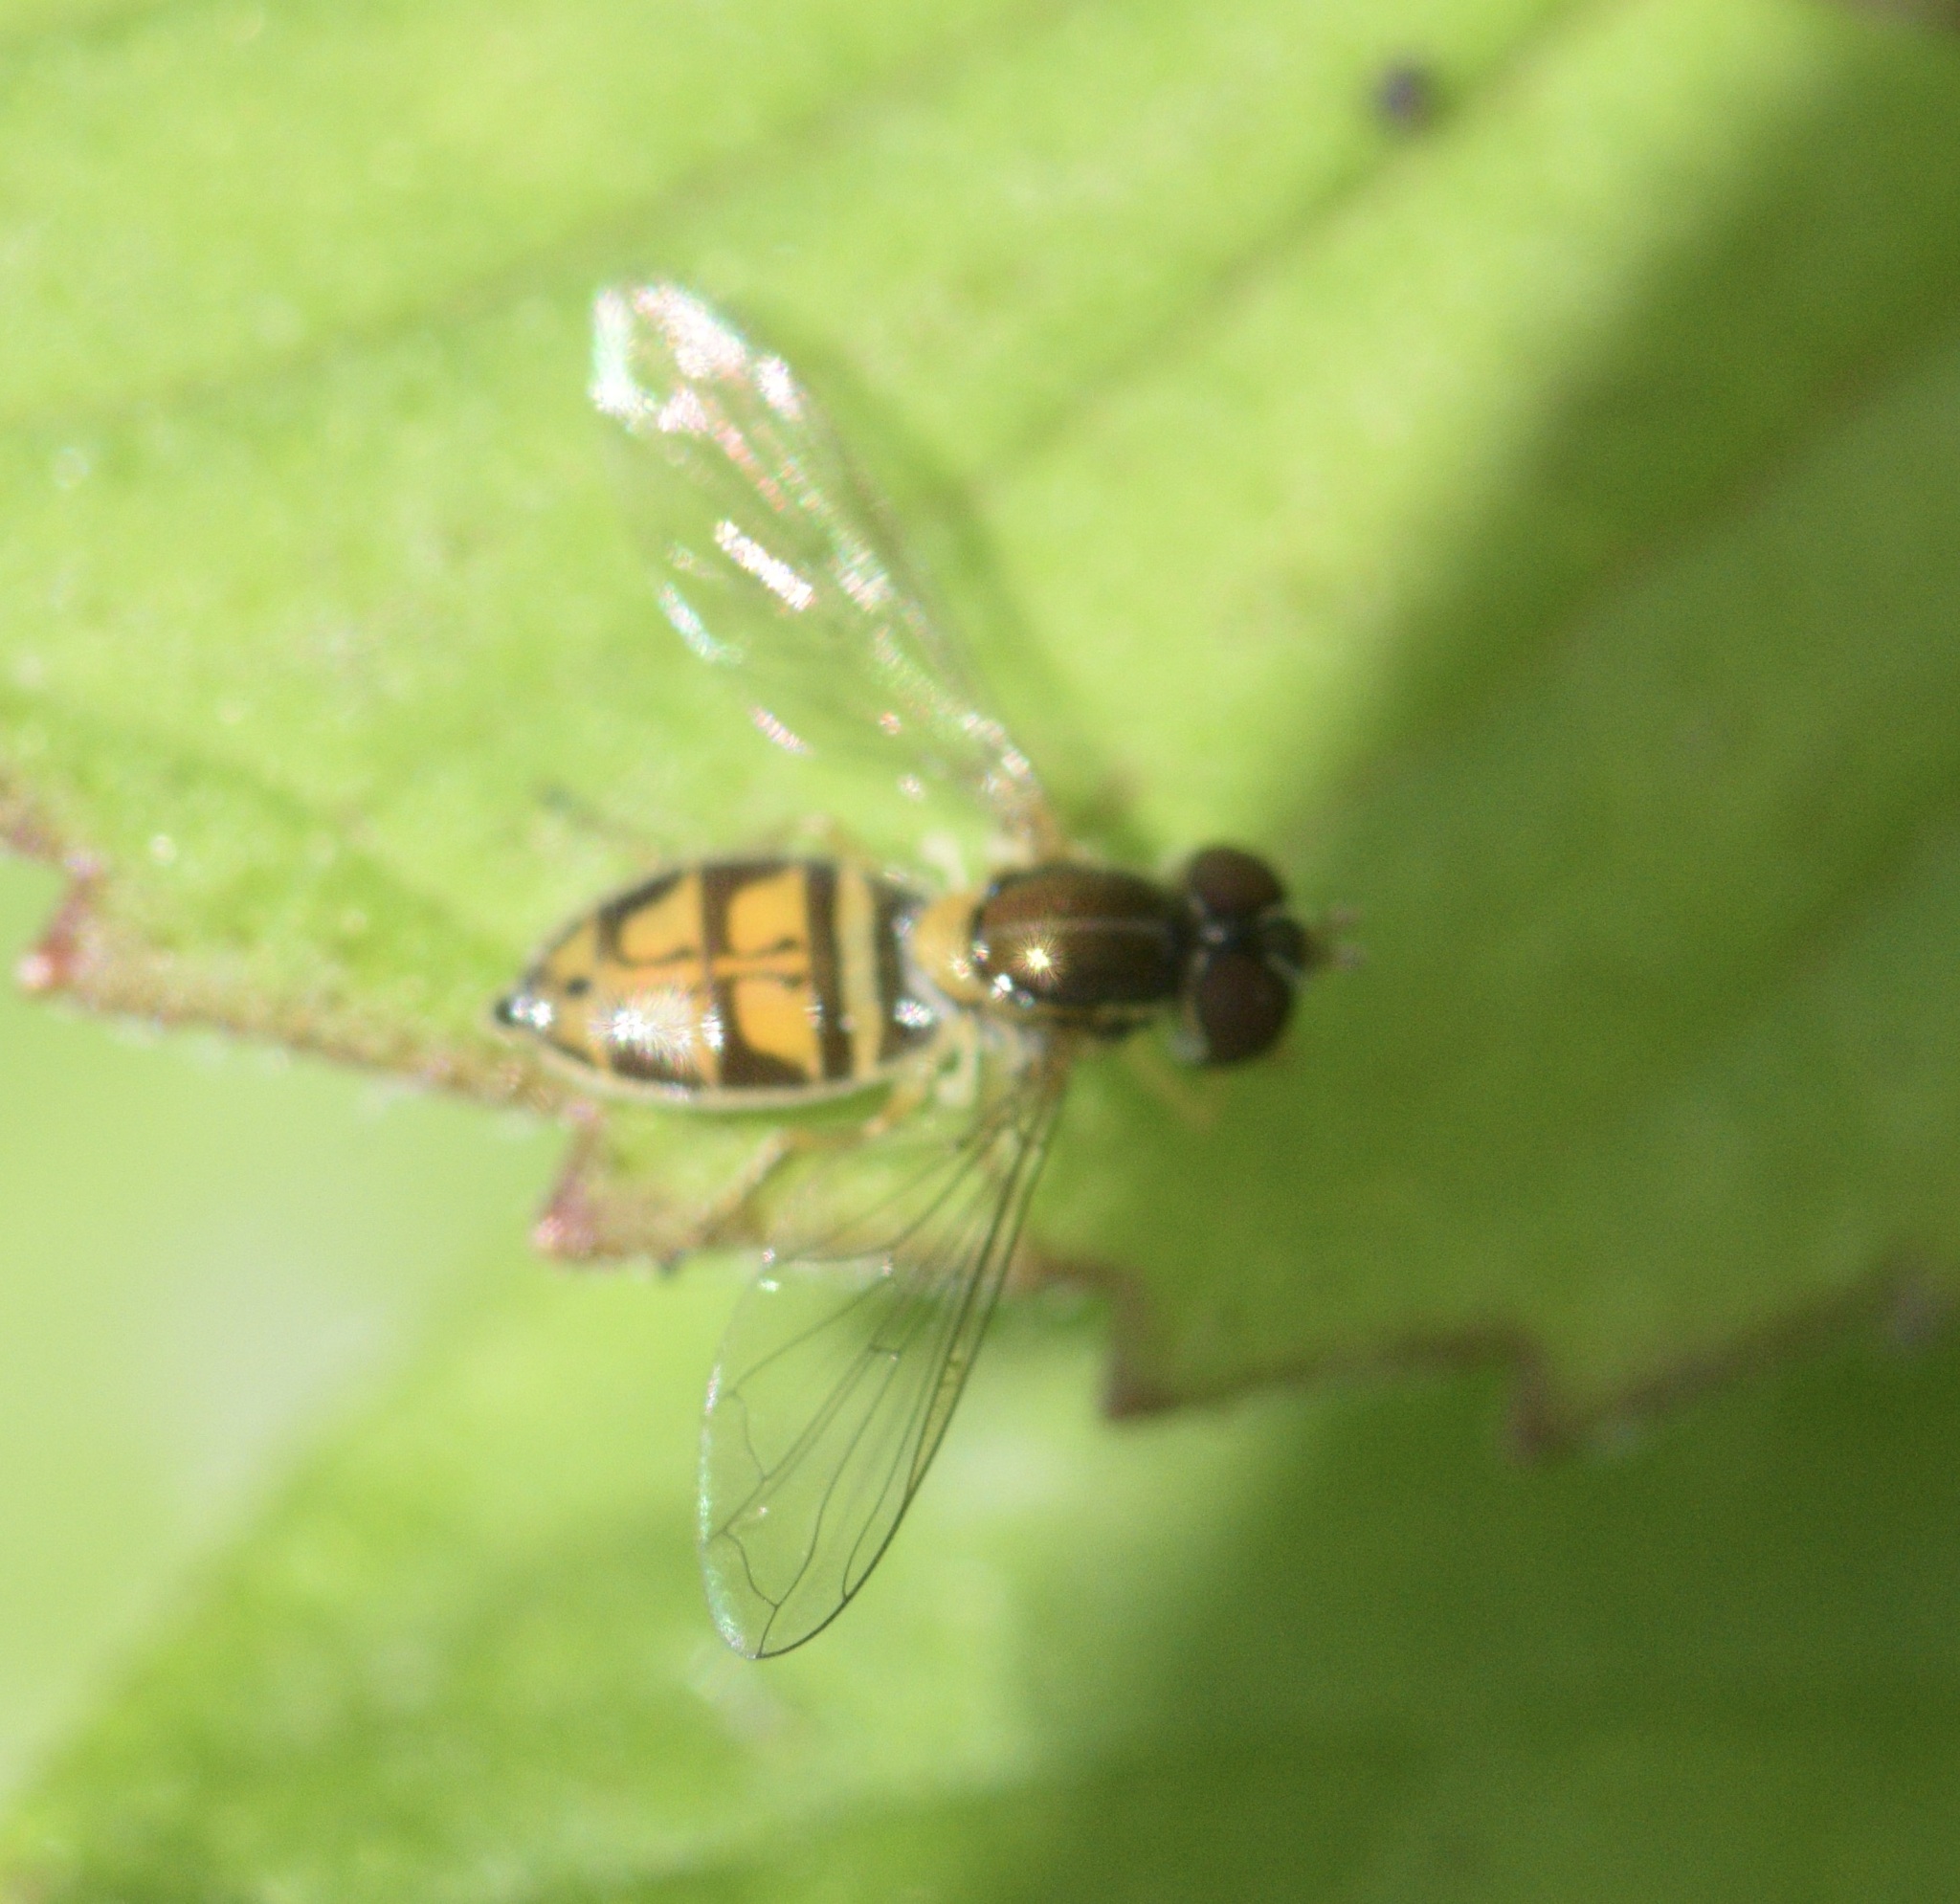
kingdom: Animalia
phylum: Arthropoda
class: Insecta
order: Diptera
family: Syrphidae
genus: Toxomerus
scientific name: Toxomerus marginatus
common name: Syrphid fly
